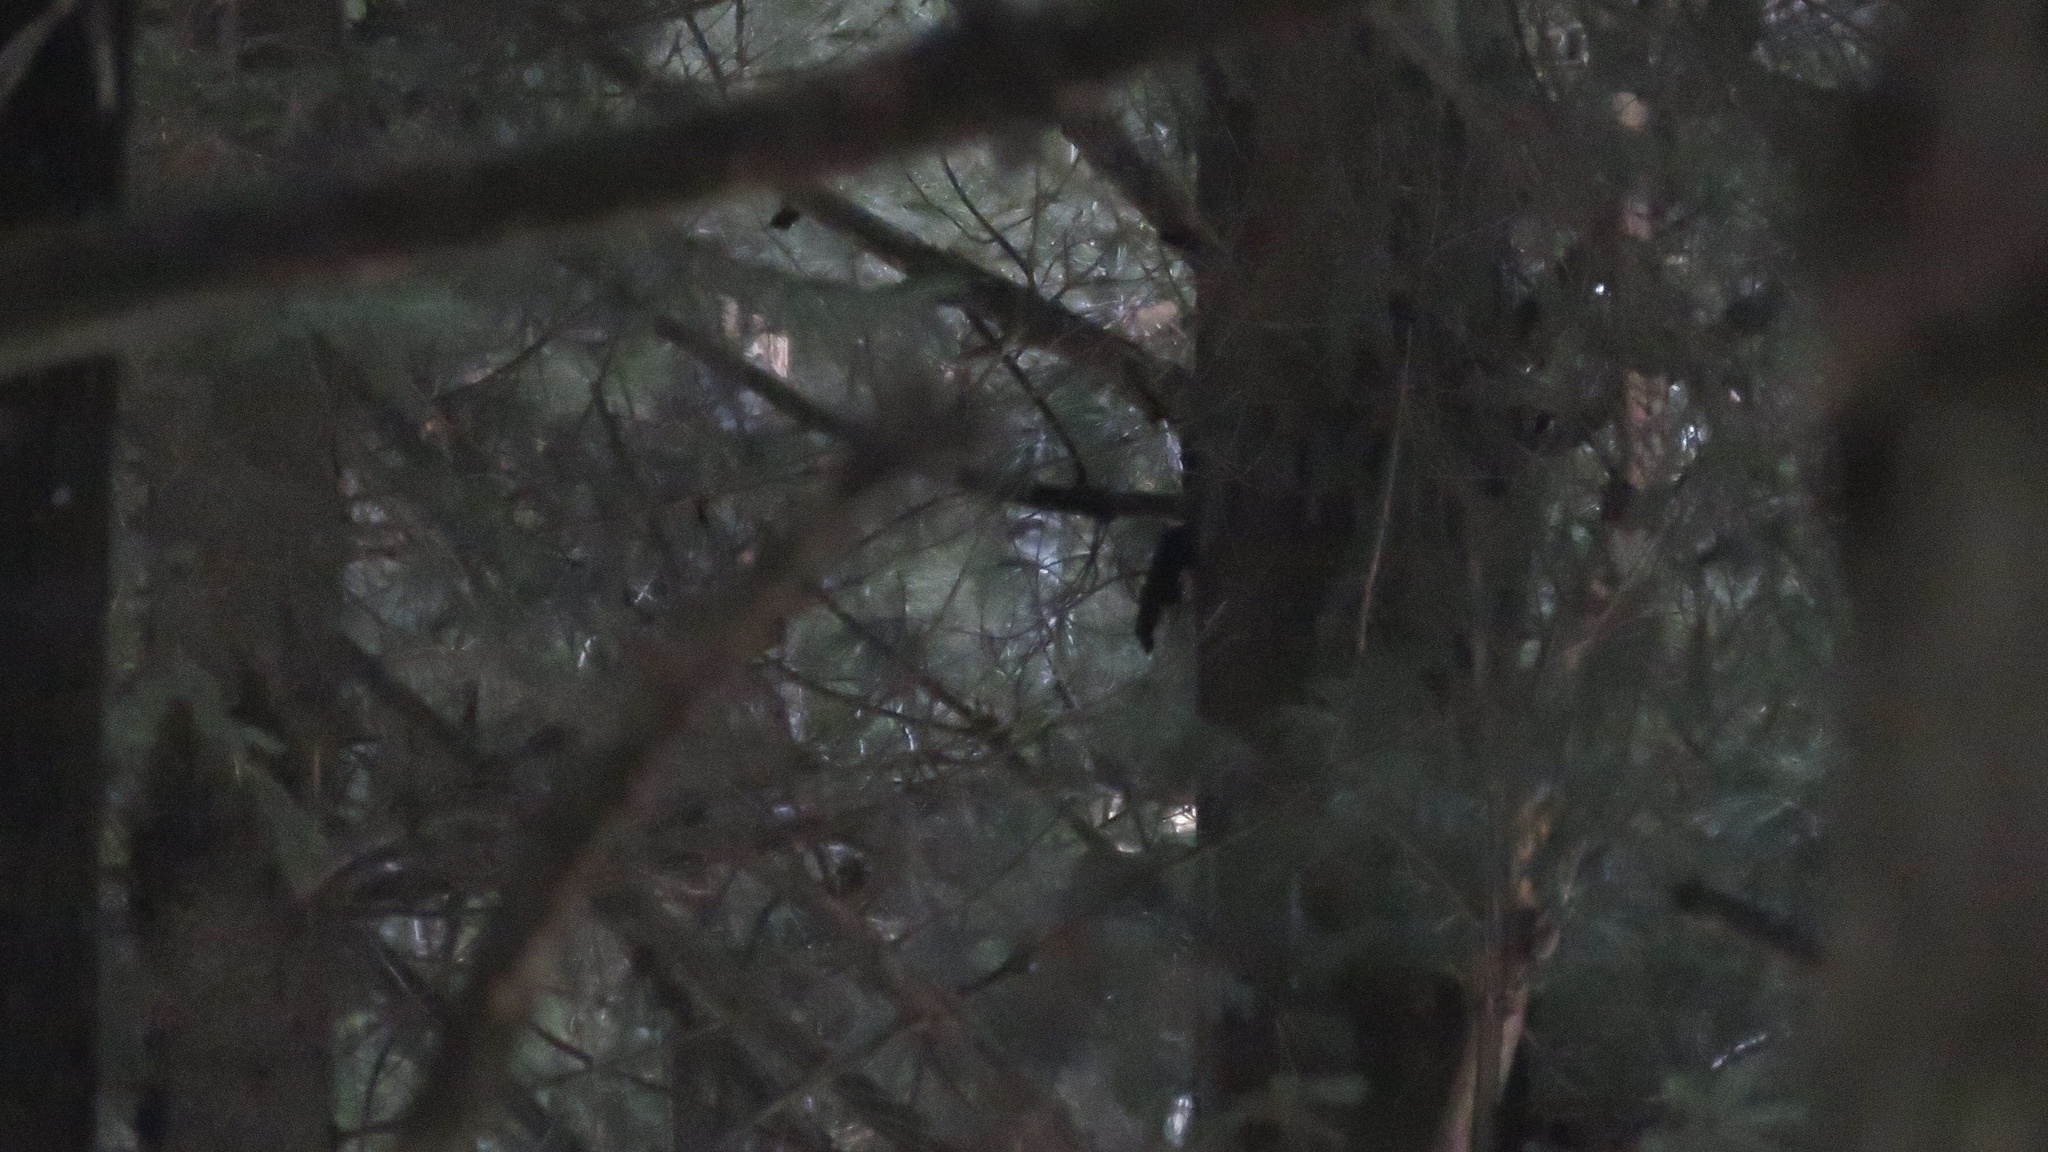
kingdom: Animalia
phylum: Chordata
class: Aves
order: Accipitriformes
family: Accipitridae
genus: Accipiter
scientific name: Accipiter gentilis
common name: Northern goshawk
